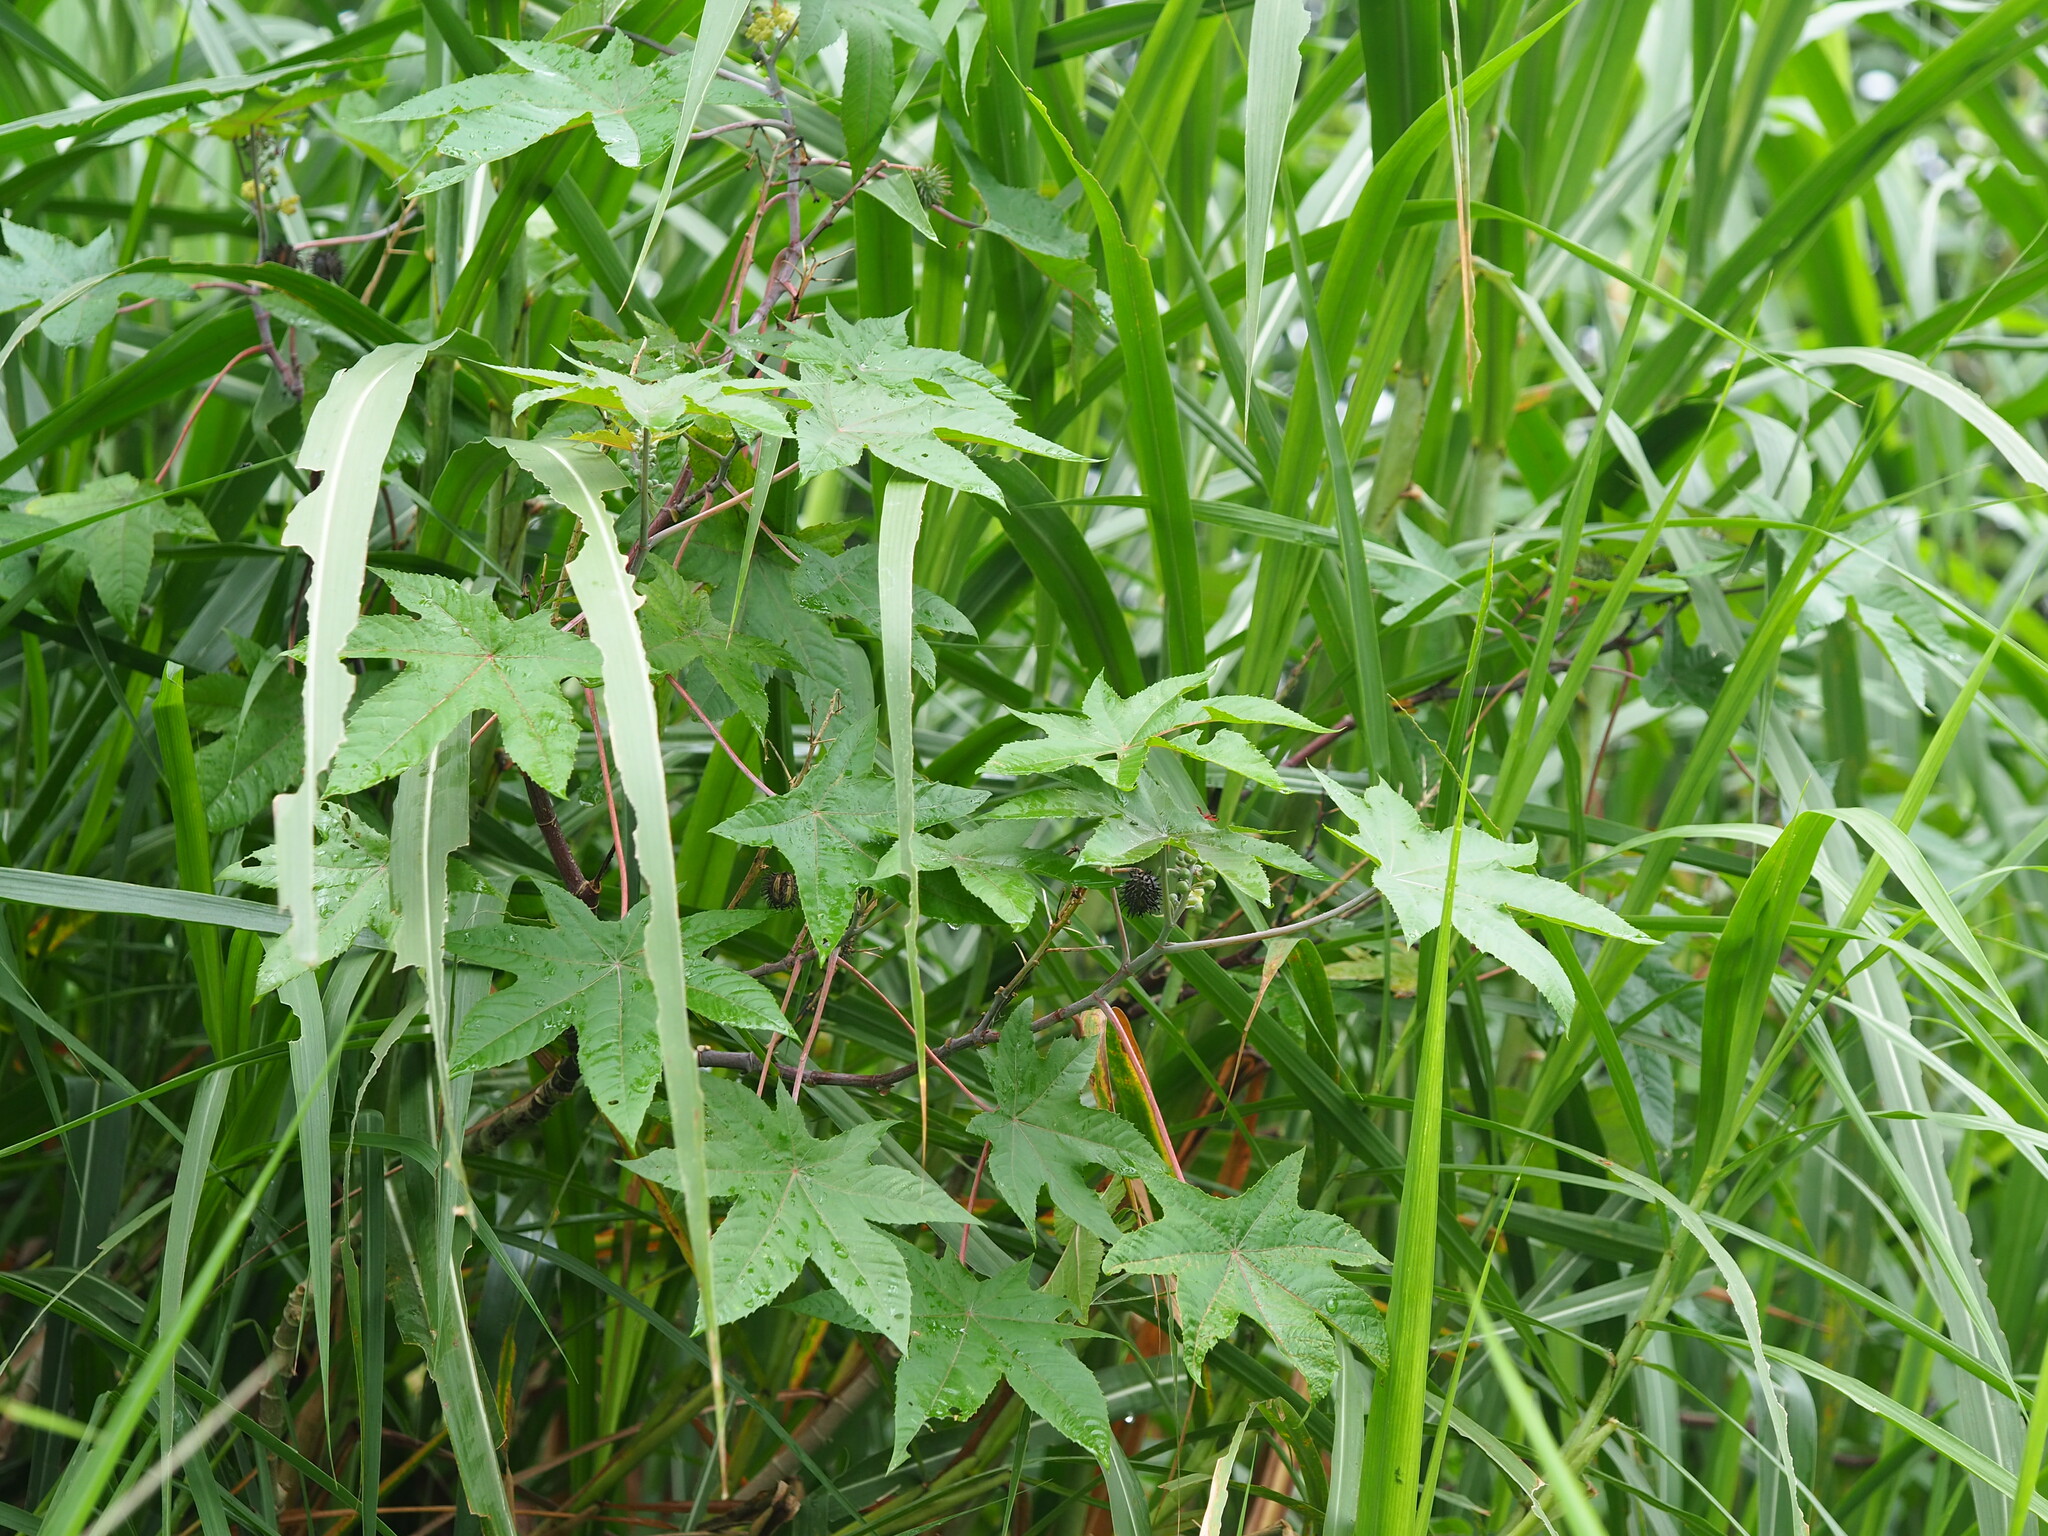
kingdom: Plantae
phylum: Tracheophyta
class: Magnoliopsida
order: Malpighiales
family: Euphorbiaceae
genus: Ricinus
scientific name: Ricinus communis
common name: Castor-oil-plant
